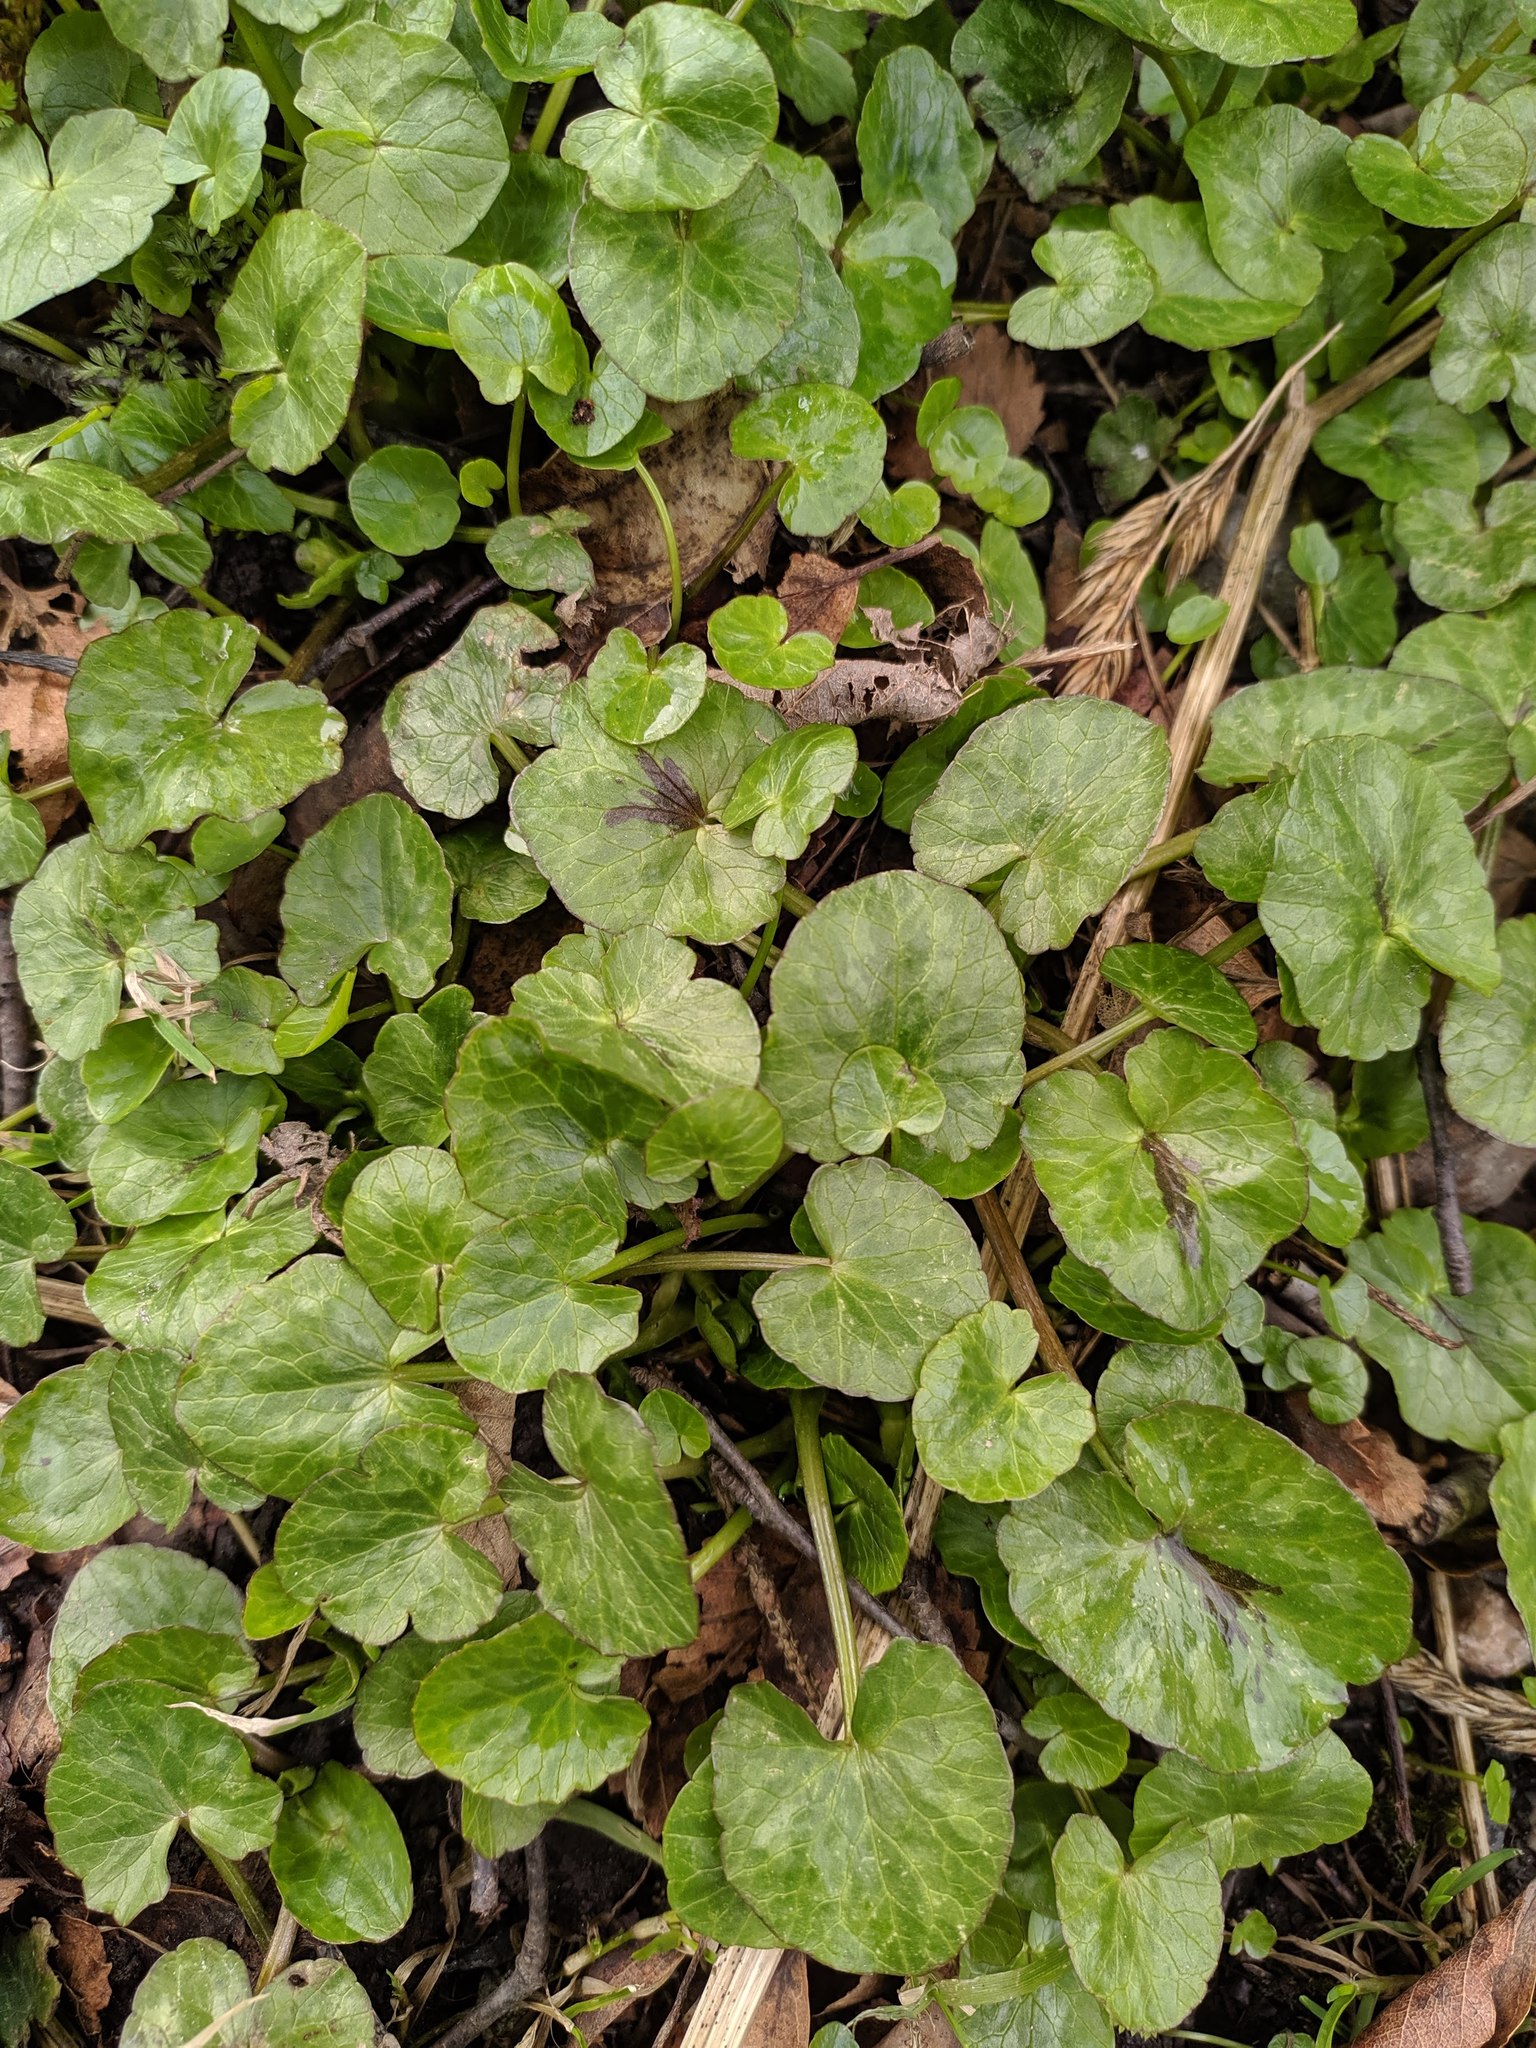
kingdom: Plantae
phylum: Tracheophyta
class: Magnoliopsida
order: Ranunculales
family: Ranunculaceae
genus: Ficaria
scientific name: Ficaria verna
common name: Lesser celandine
